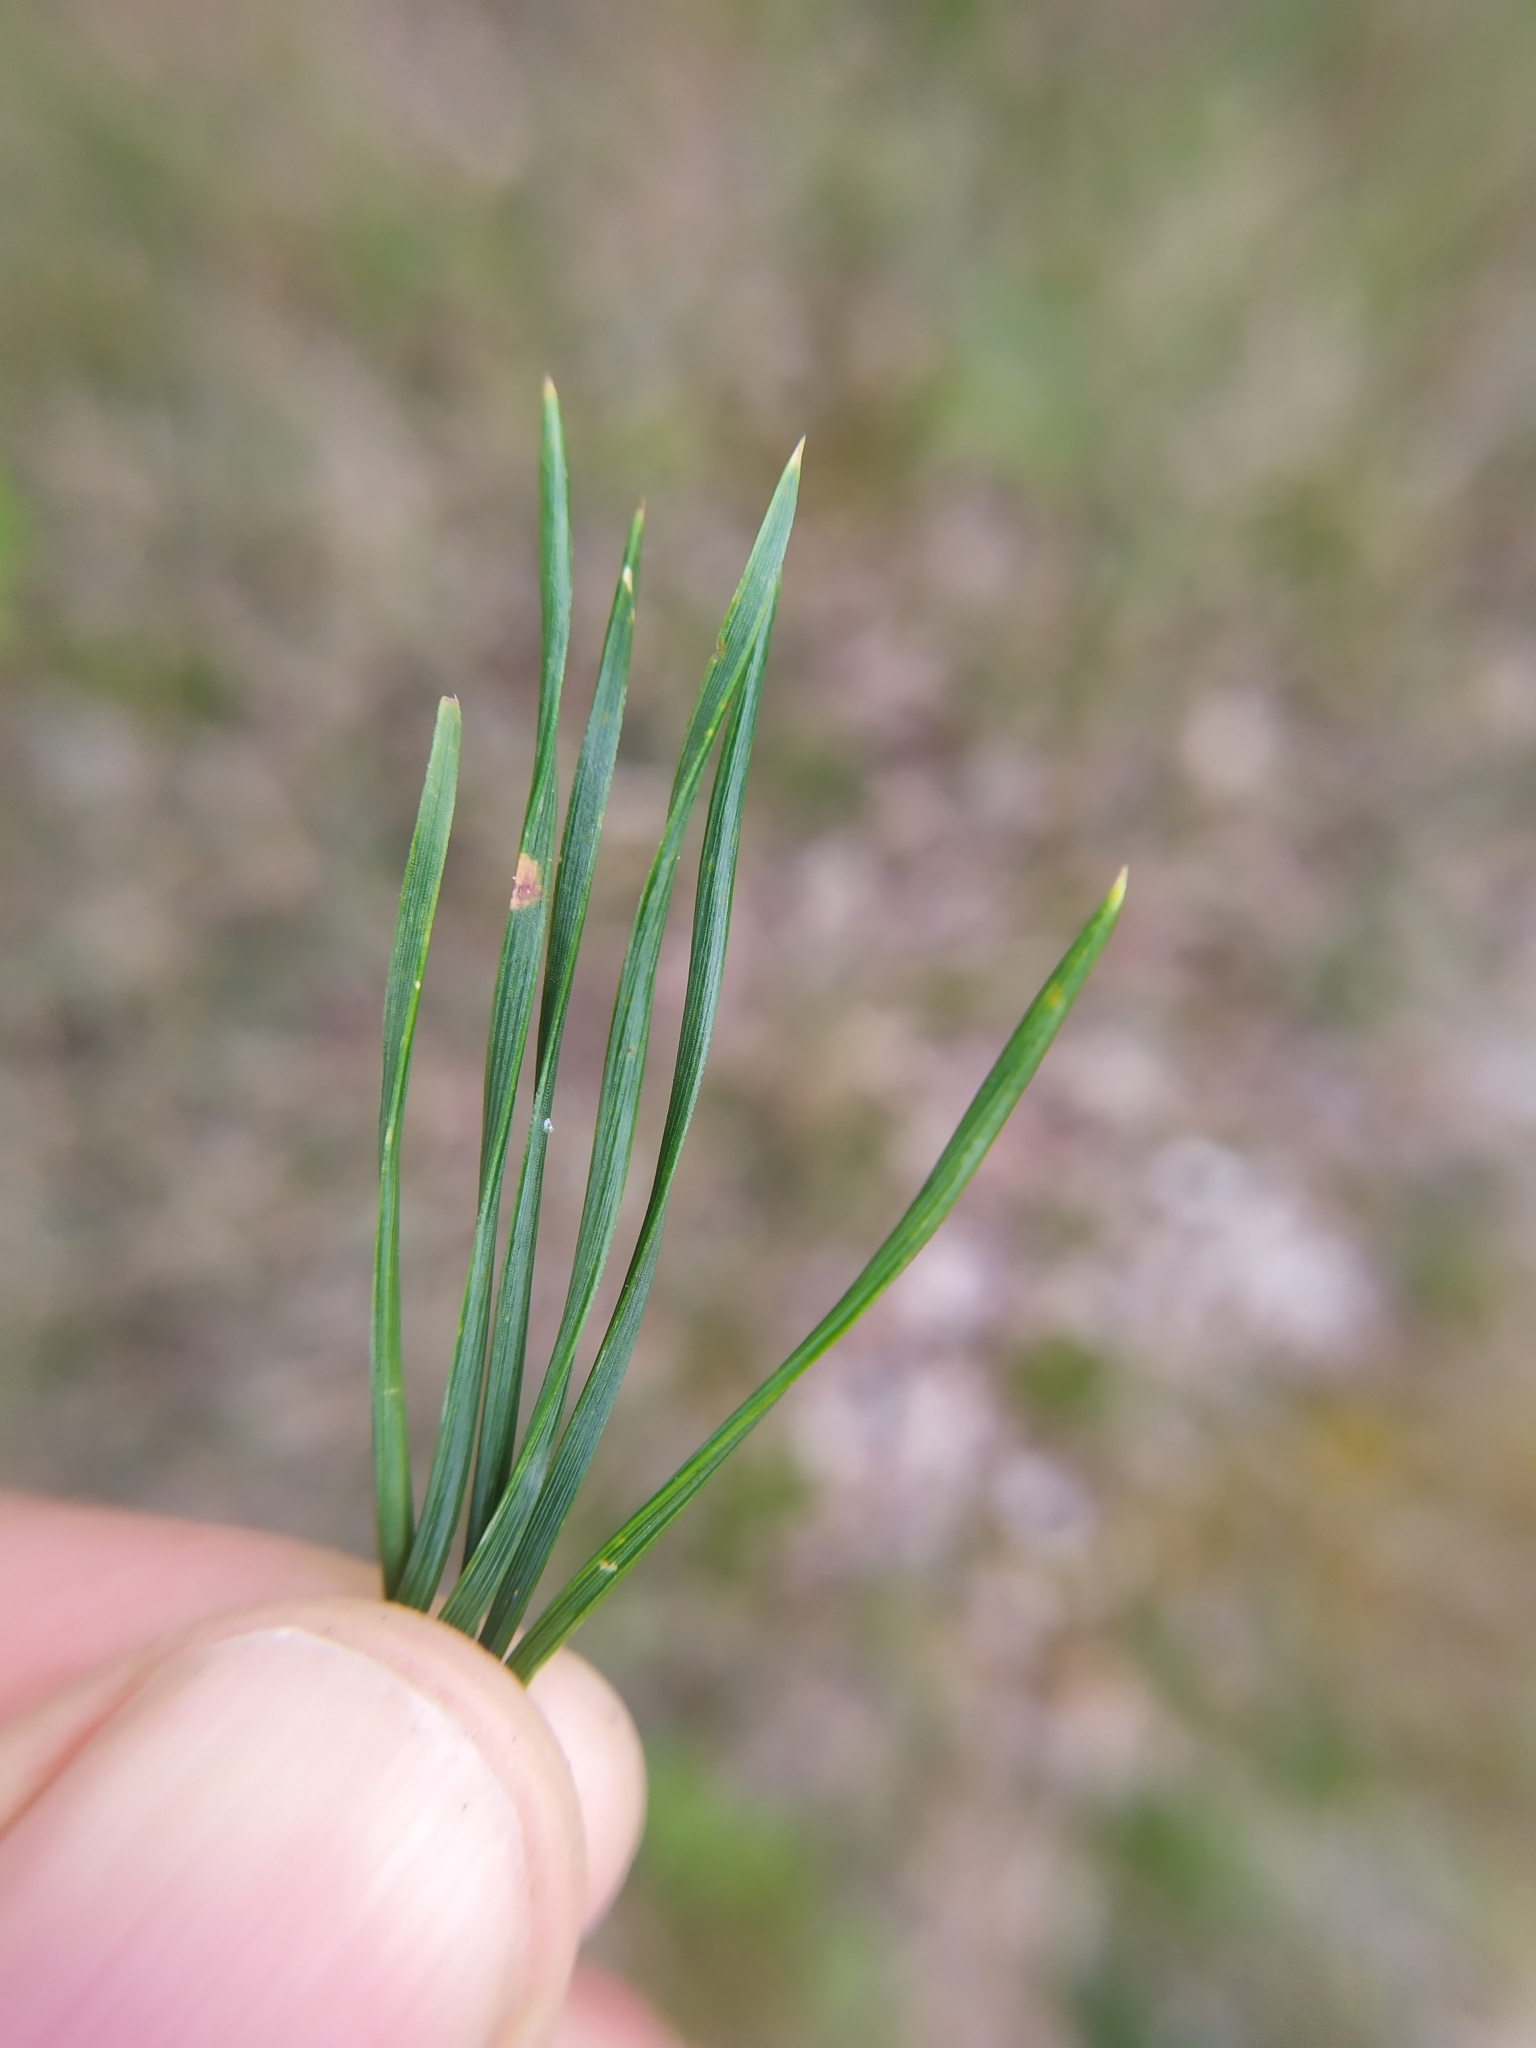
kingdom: Plantae
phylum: Tracheophyta
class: Pinopsida
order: Pinales
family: Pinaceae
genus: Pinus
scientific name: Pinus sylvestris
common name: Scots pine
